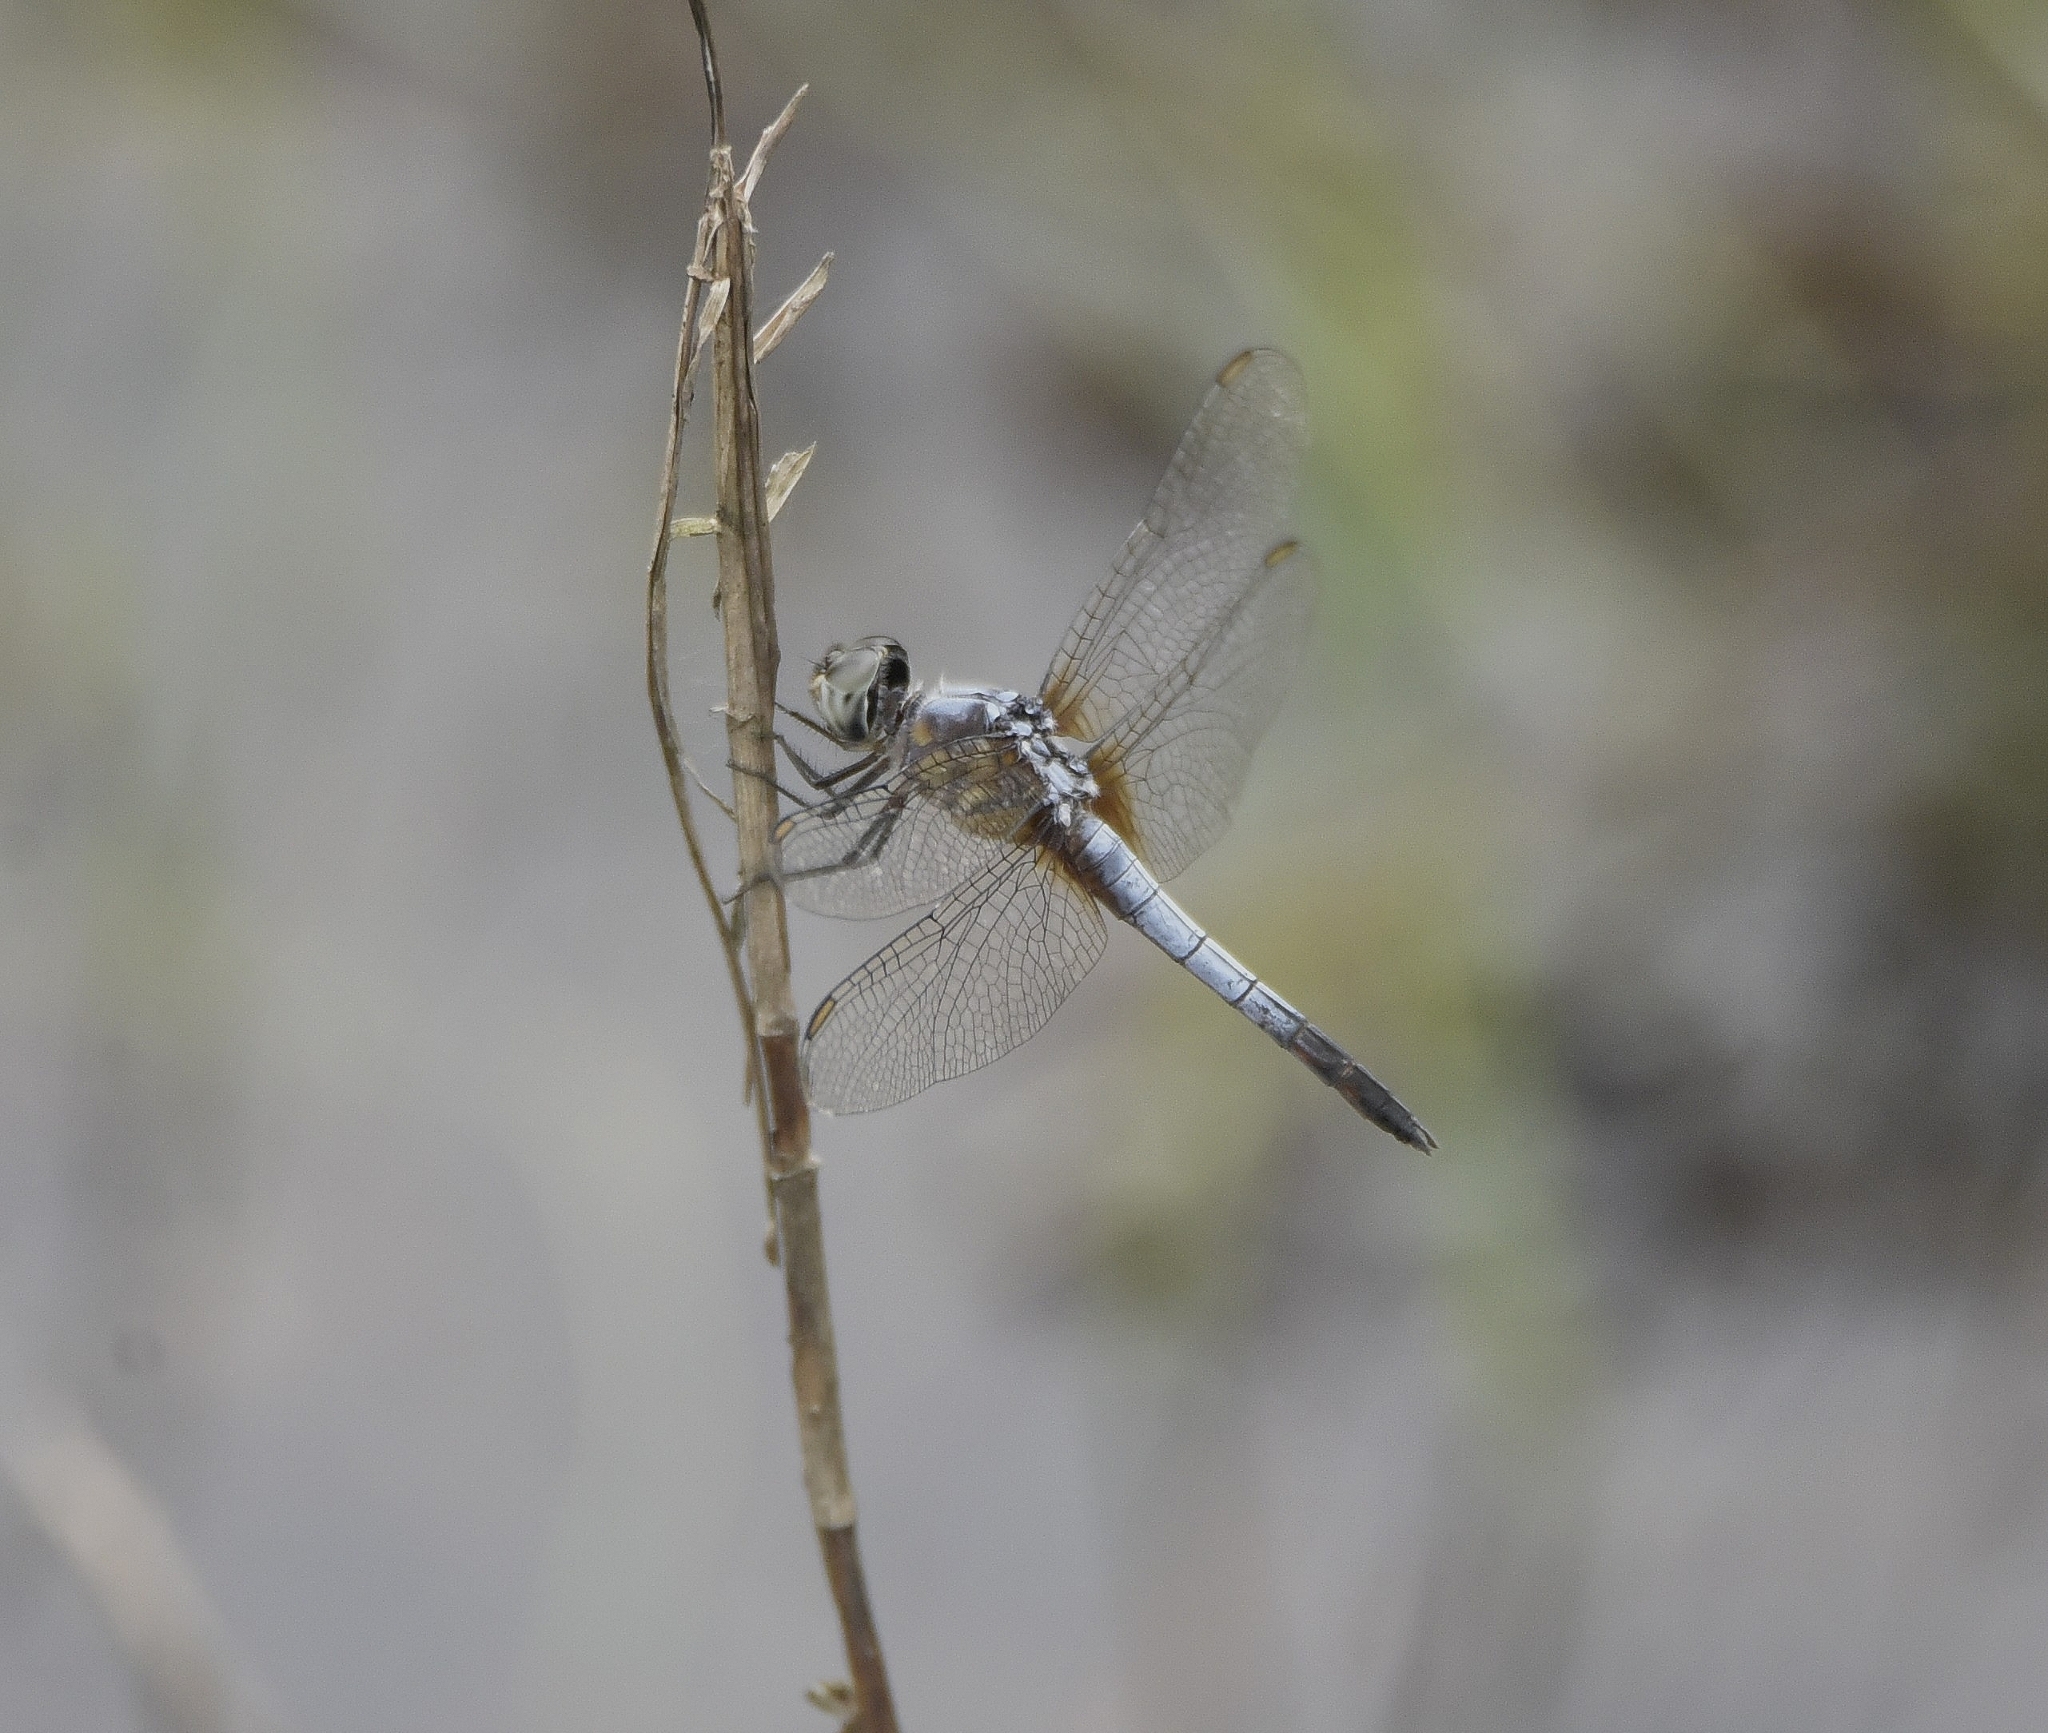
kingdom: Animalia
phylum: Arthropoda
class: Insecta
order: Odonata
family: Libellulidae
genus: Brachydiplax
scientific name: Brachydiplax chalybea
